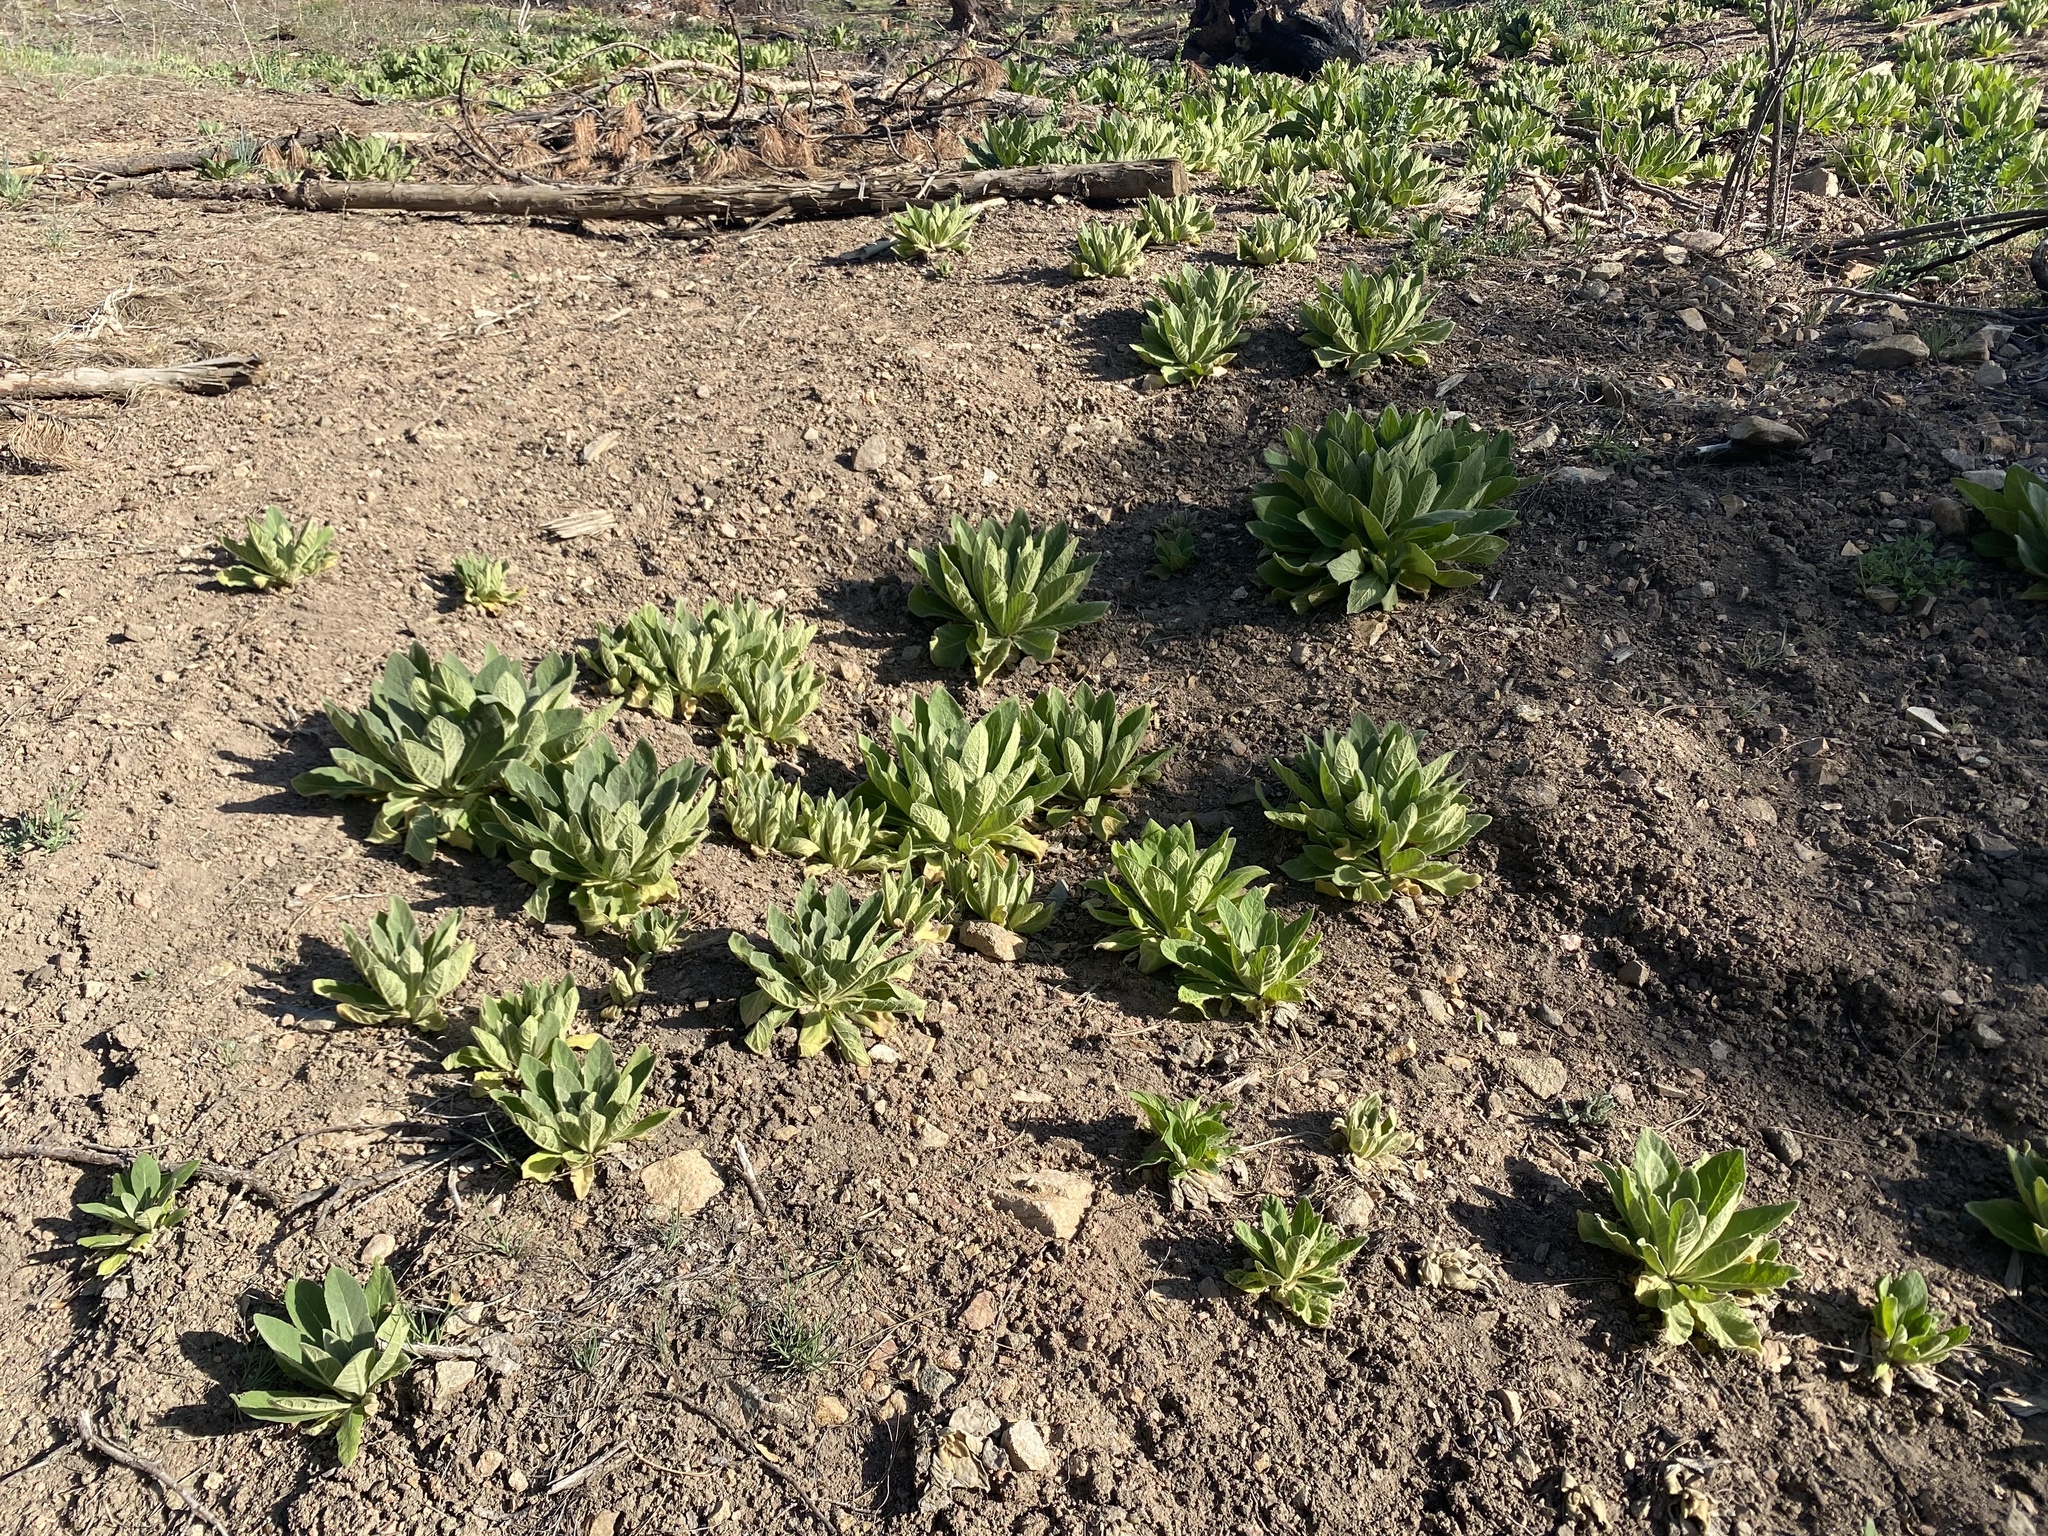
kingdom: Plantae
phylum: Tracheophyta
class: Magnoliopsida
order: Lamiales
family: Scrophulariaceae
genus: Verbascum
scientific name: Verbascum thapsus
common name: Common mullein
